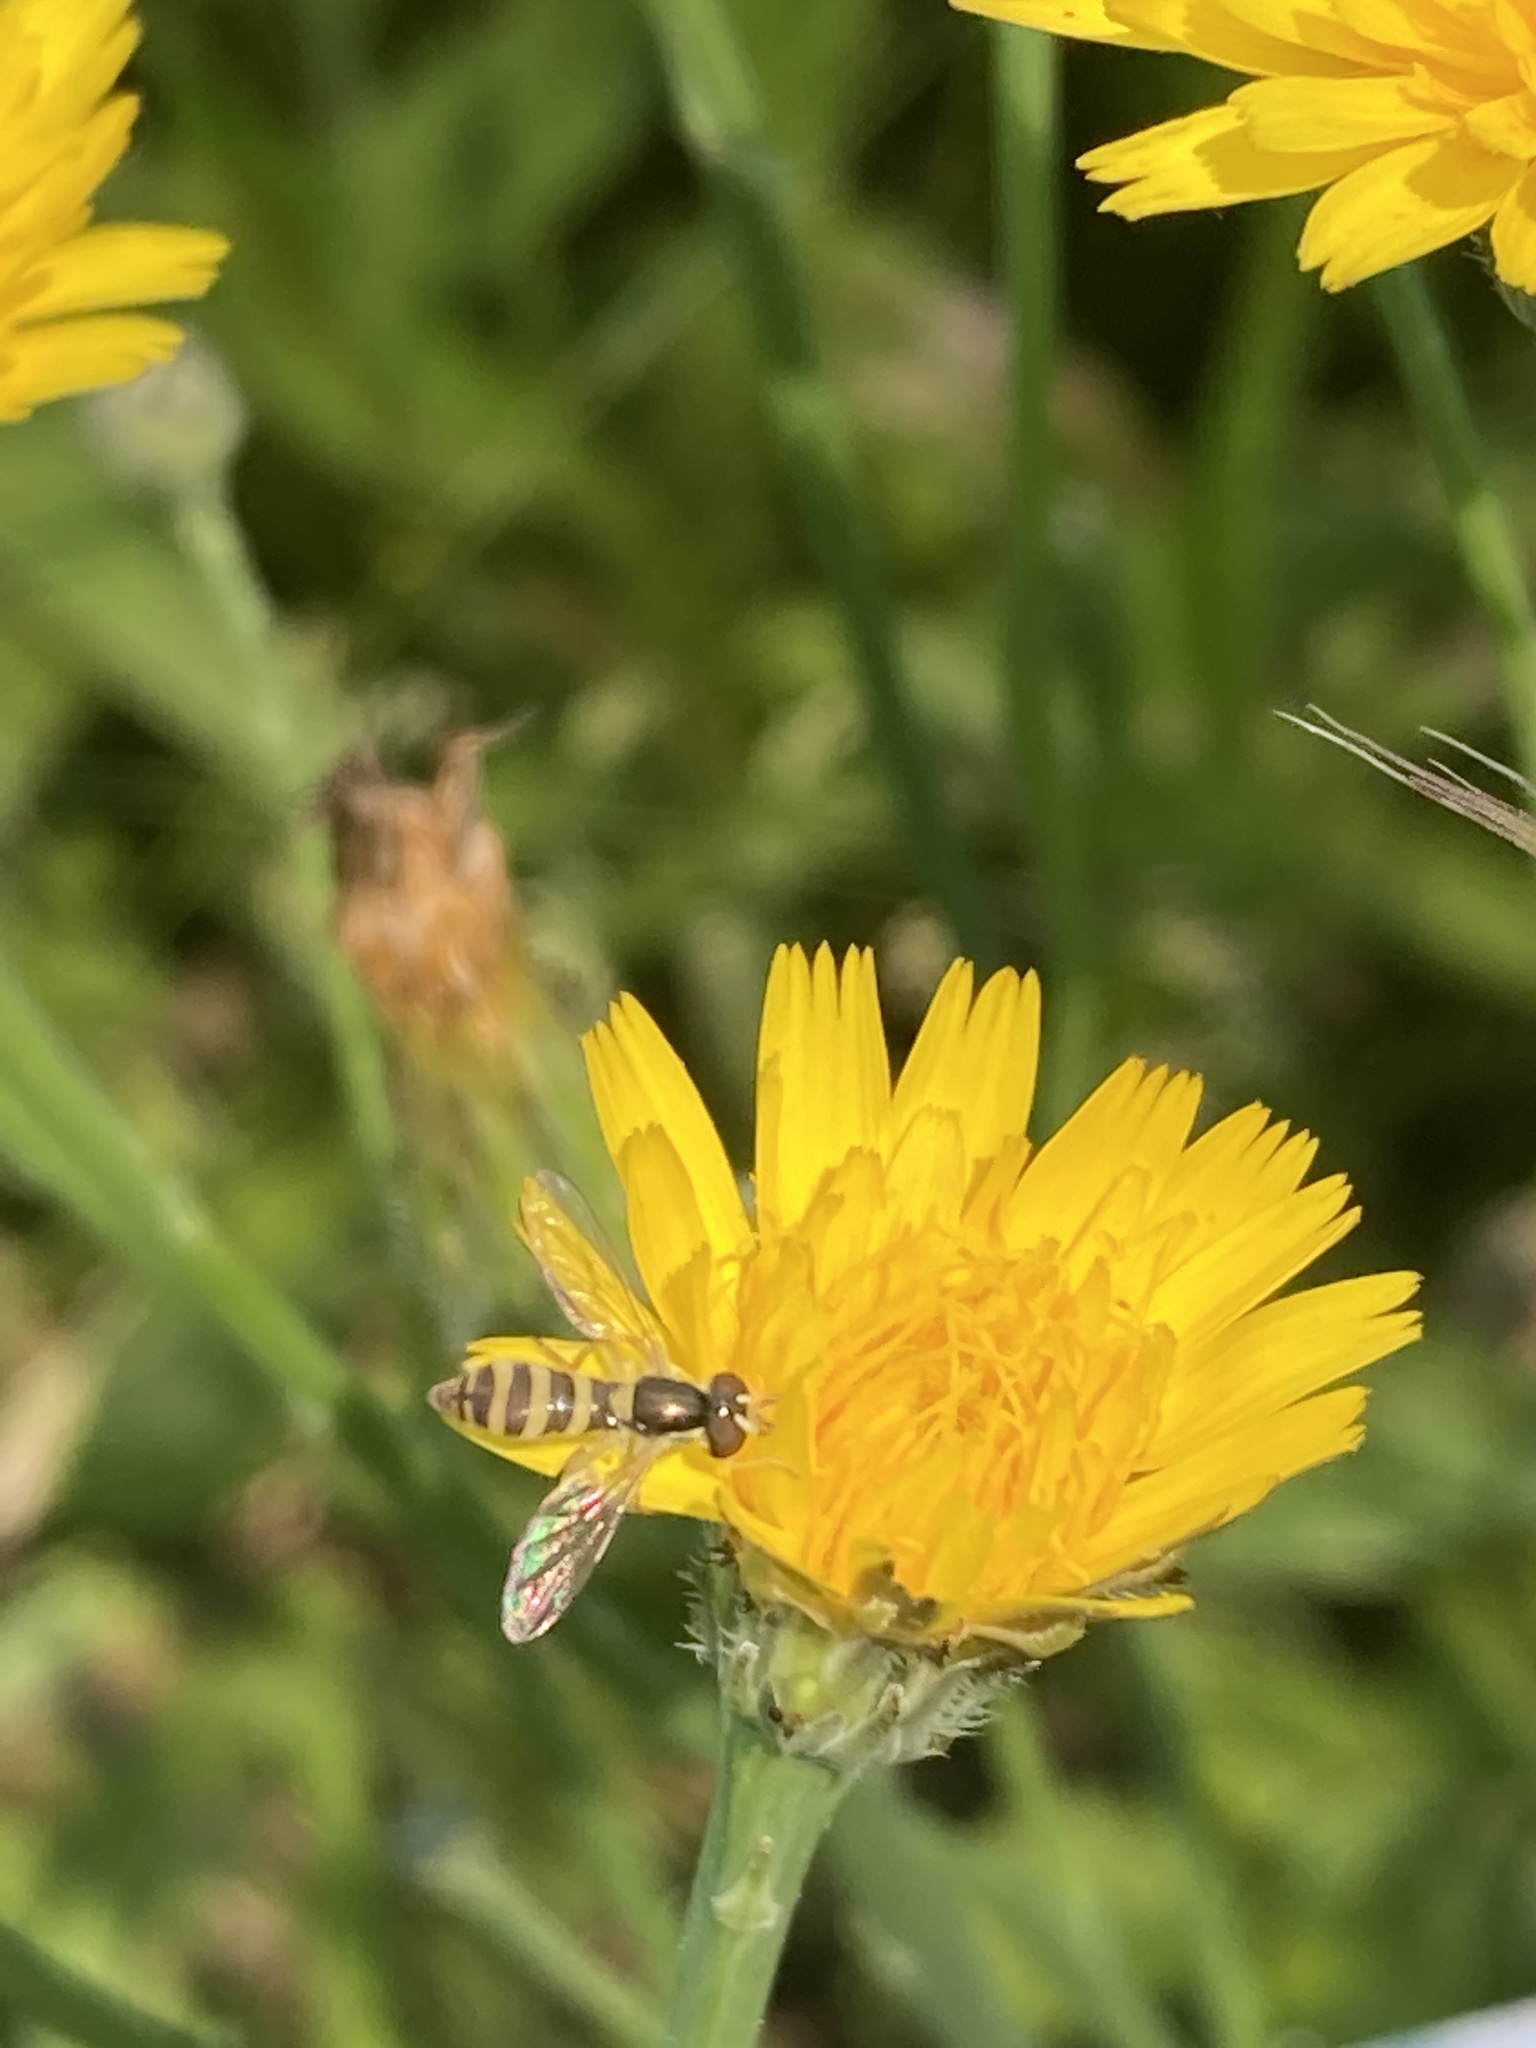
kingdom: Animalia
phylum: Arthropoda
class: Insecta
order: Diptera
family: Syrphidae
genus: Sphaerophoria
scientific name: Sphaerophoria contigua
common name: Tufted globetail
